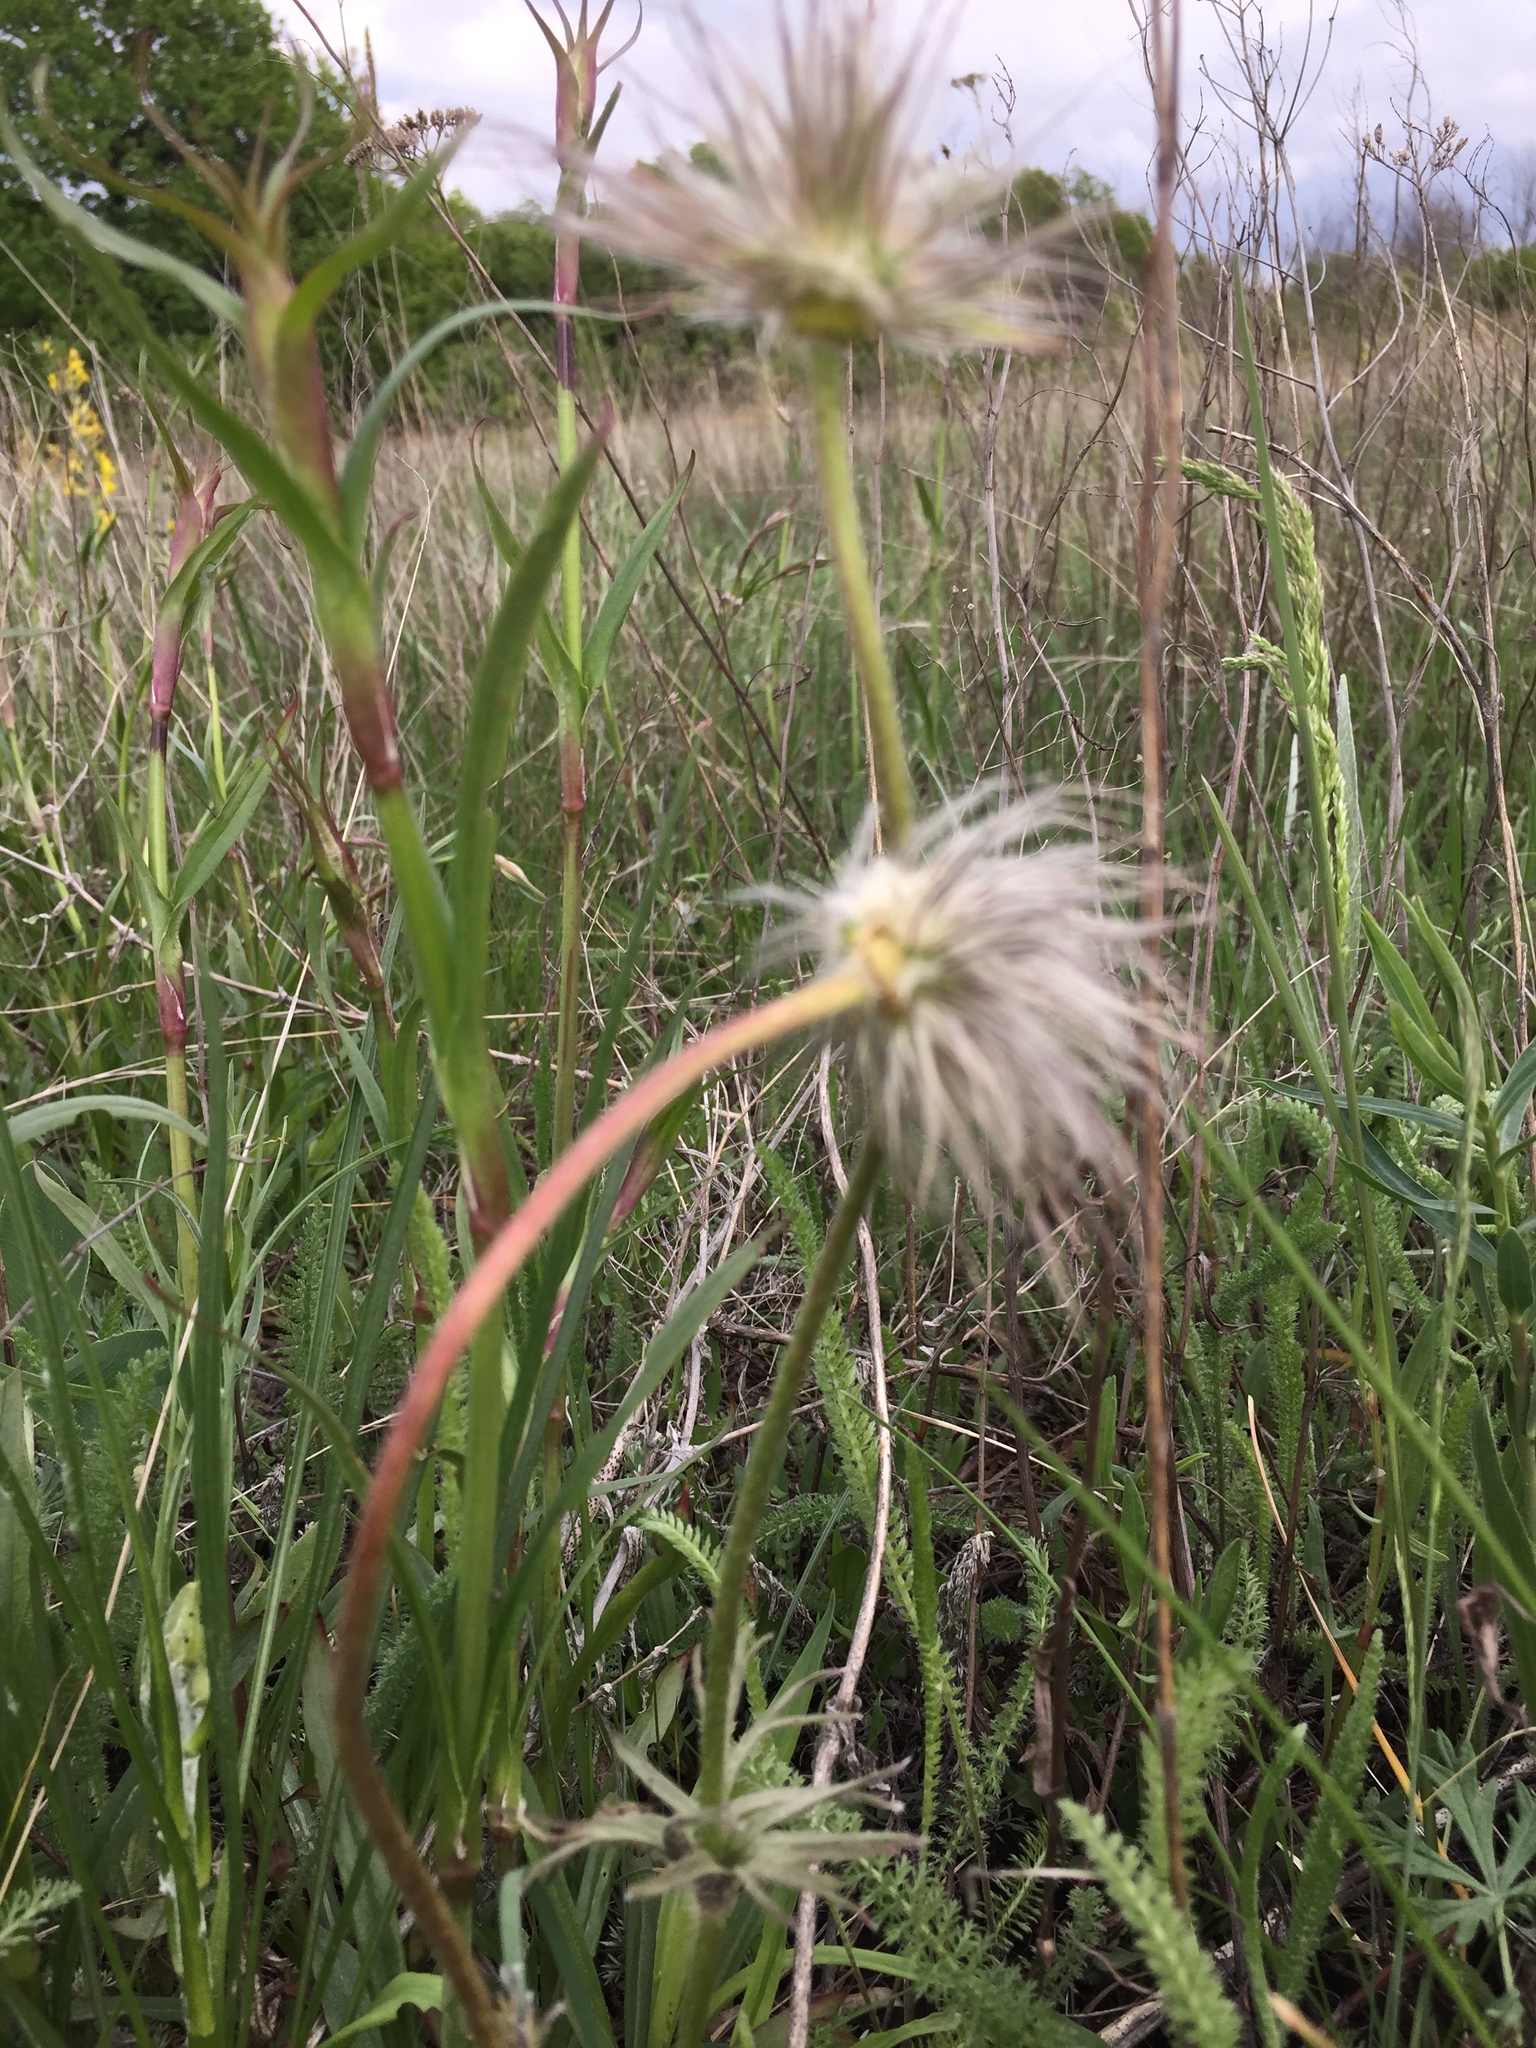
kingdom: Plantae
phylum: Tracheophyta
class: Magnoliopsida
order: Ranunculales
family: Ranunculaceae
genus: Pulsatilla
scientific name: Pulsatilla pratensis
